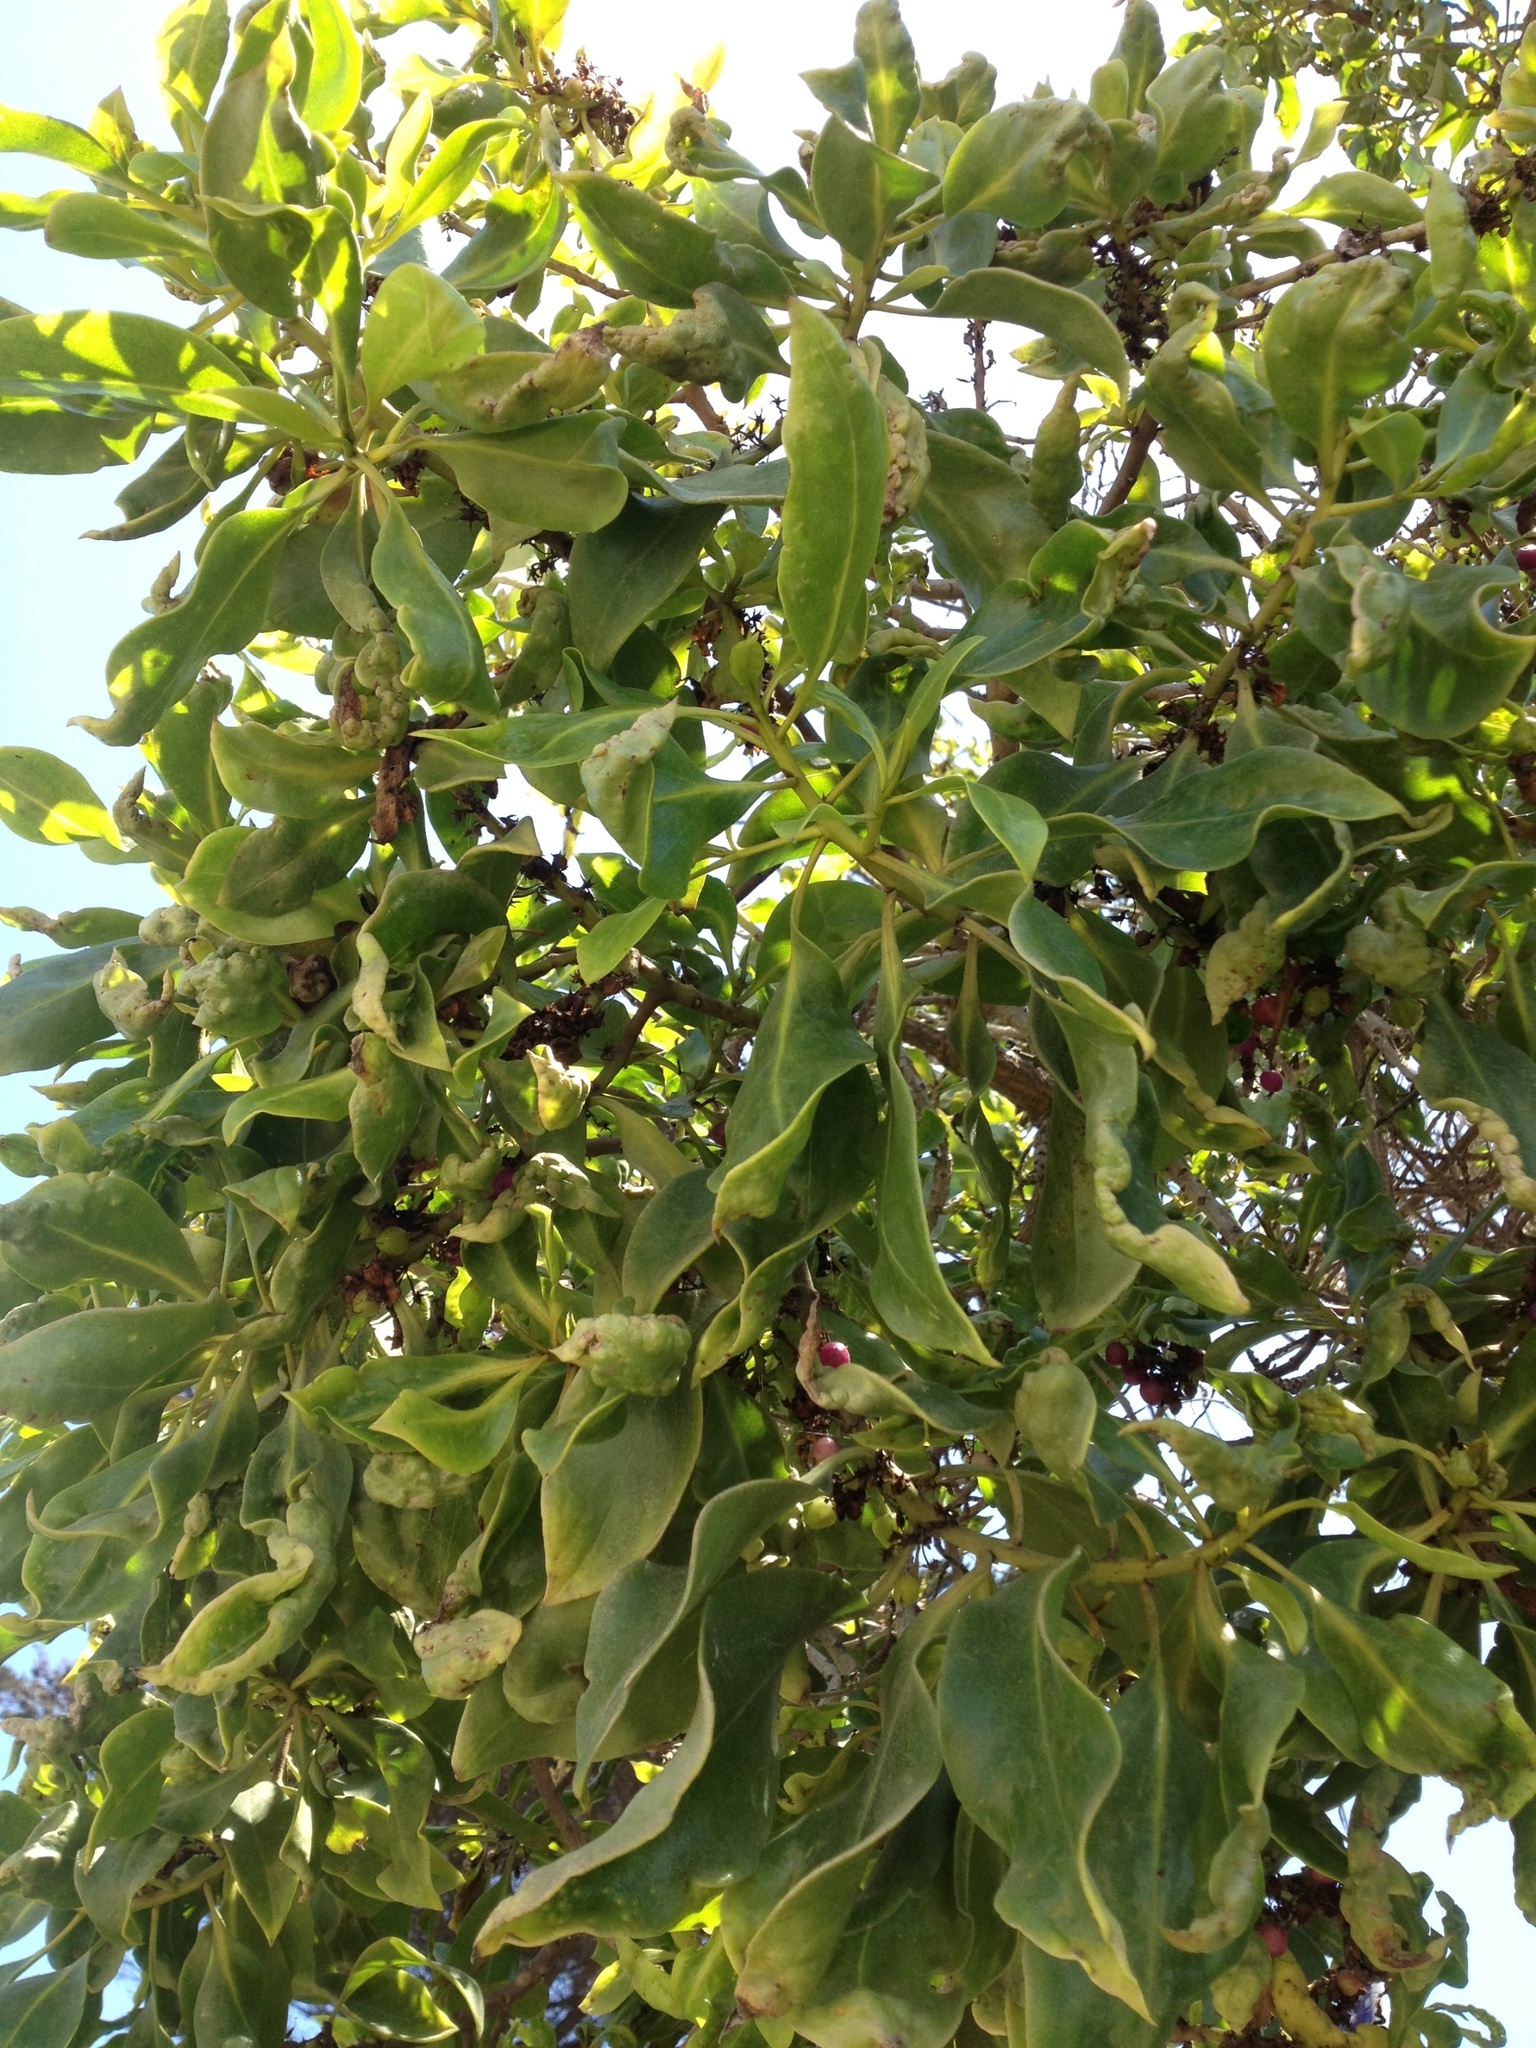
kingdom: Plantae
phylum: Tracheophyta
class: Magnoliopsida
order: Lamiales
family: Scrophulariaceae
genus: Myoporum
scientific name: Myoporum laetum
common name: Ngaio tree
